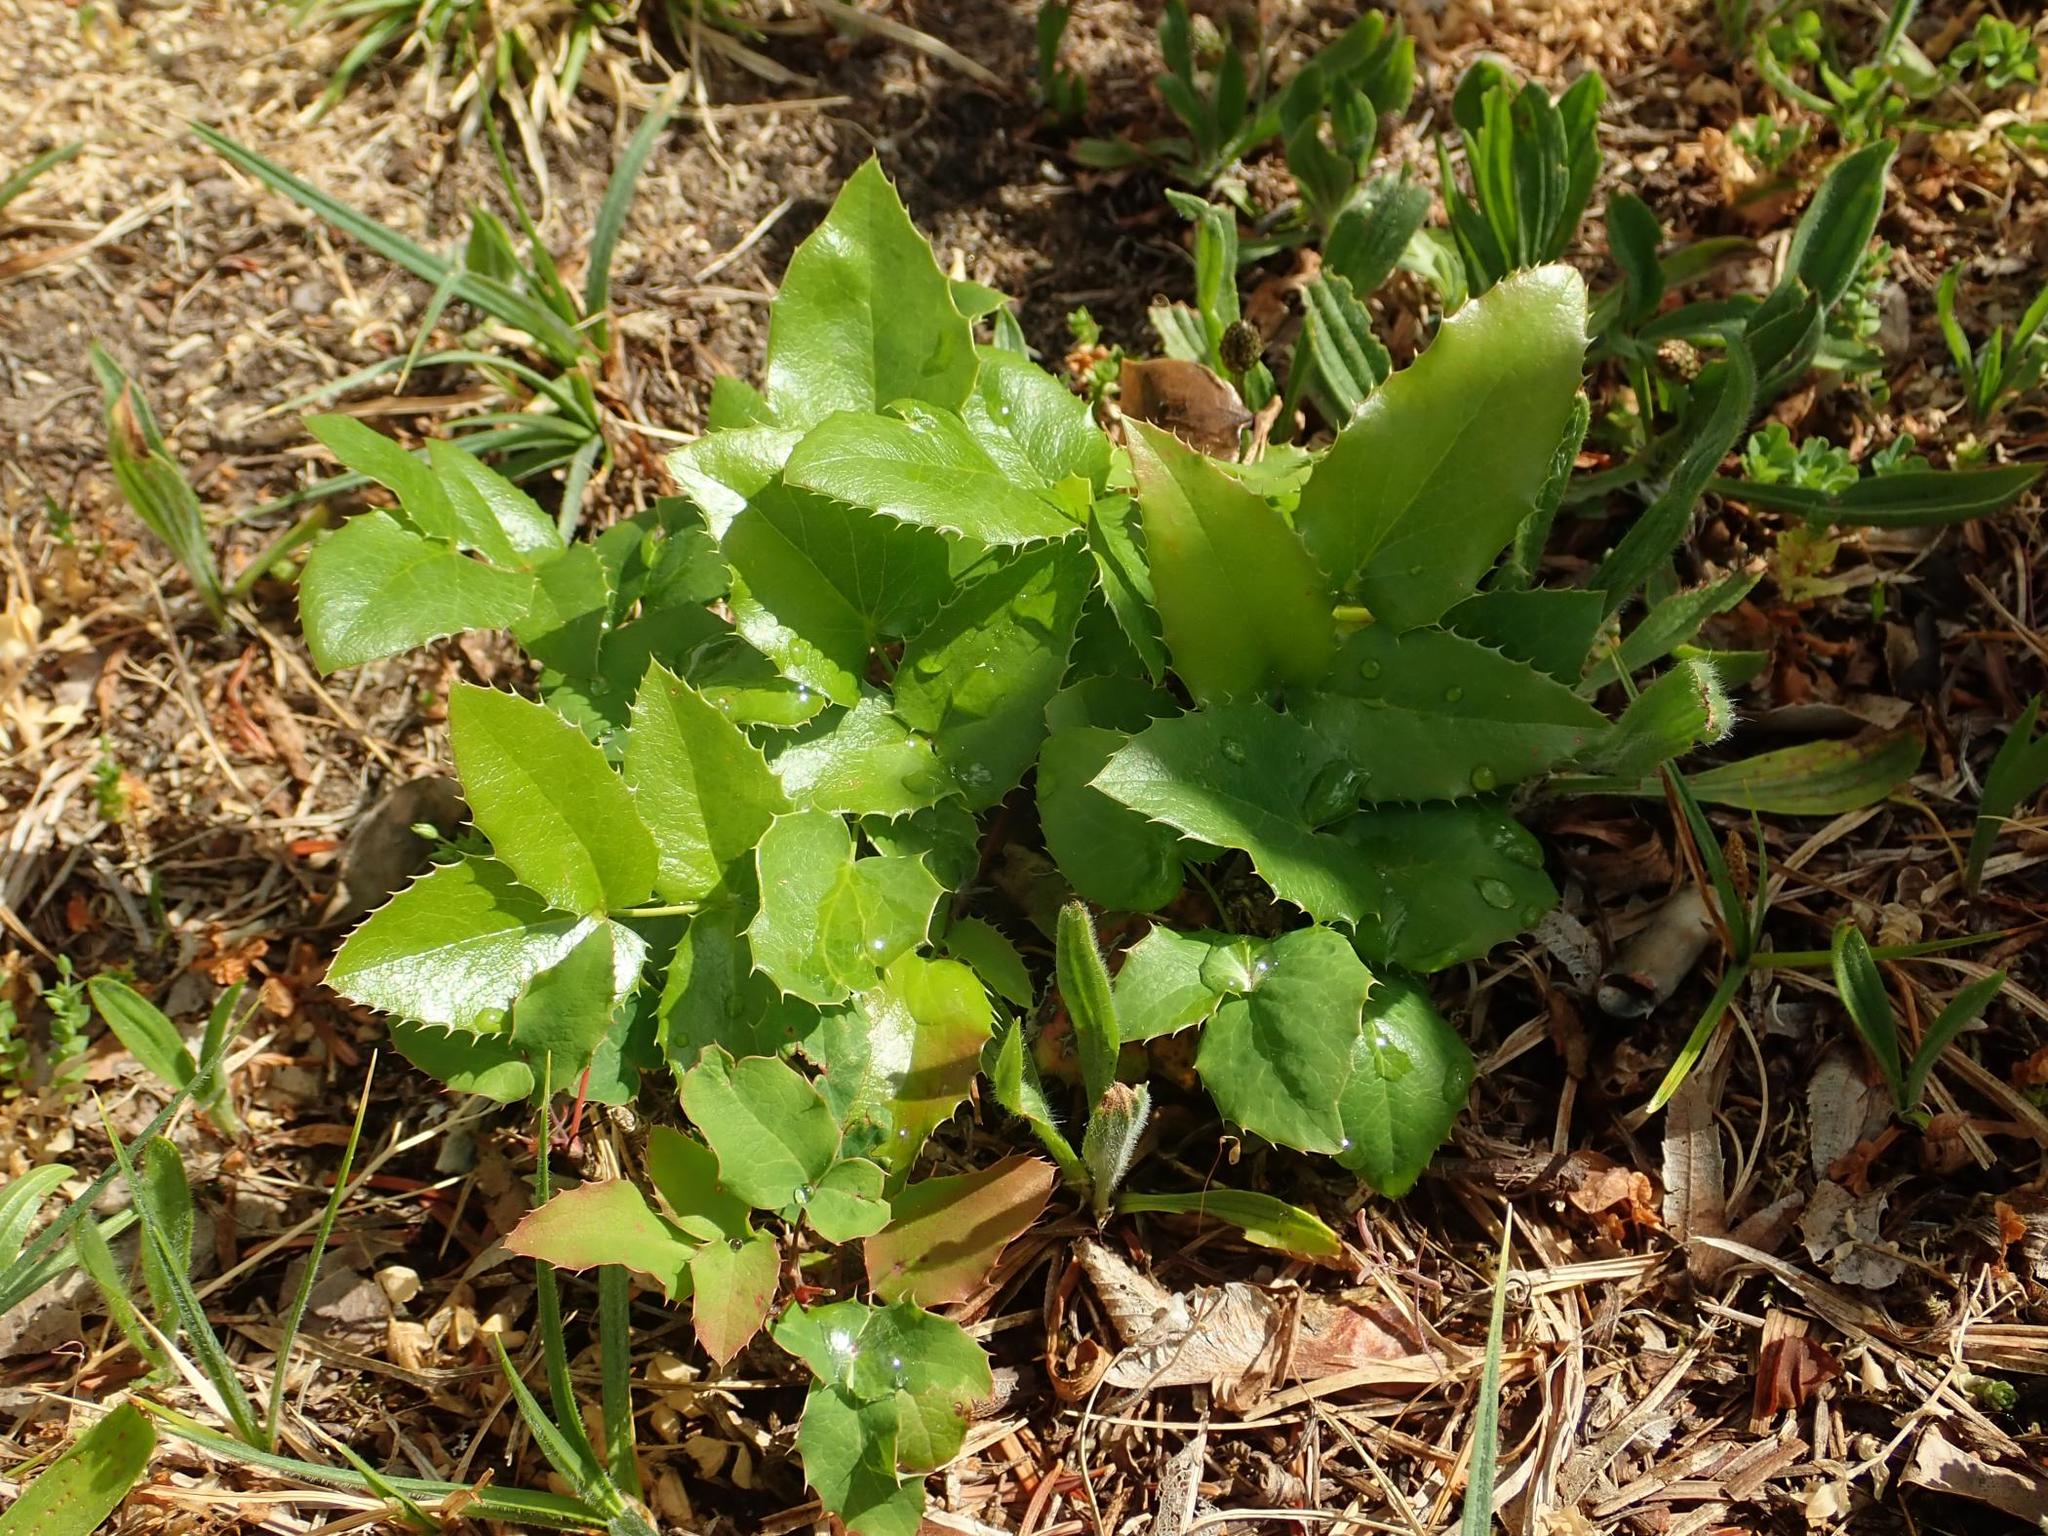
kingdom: Plantae
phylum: Tracheophyta
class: Magnoliopsida
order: Ranunculales
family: Berberidaceae
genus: Mahonia
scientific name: Mahonia aquifolium
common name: Oregon-grape
